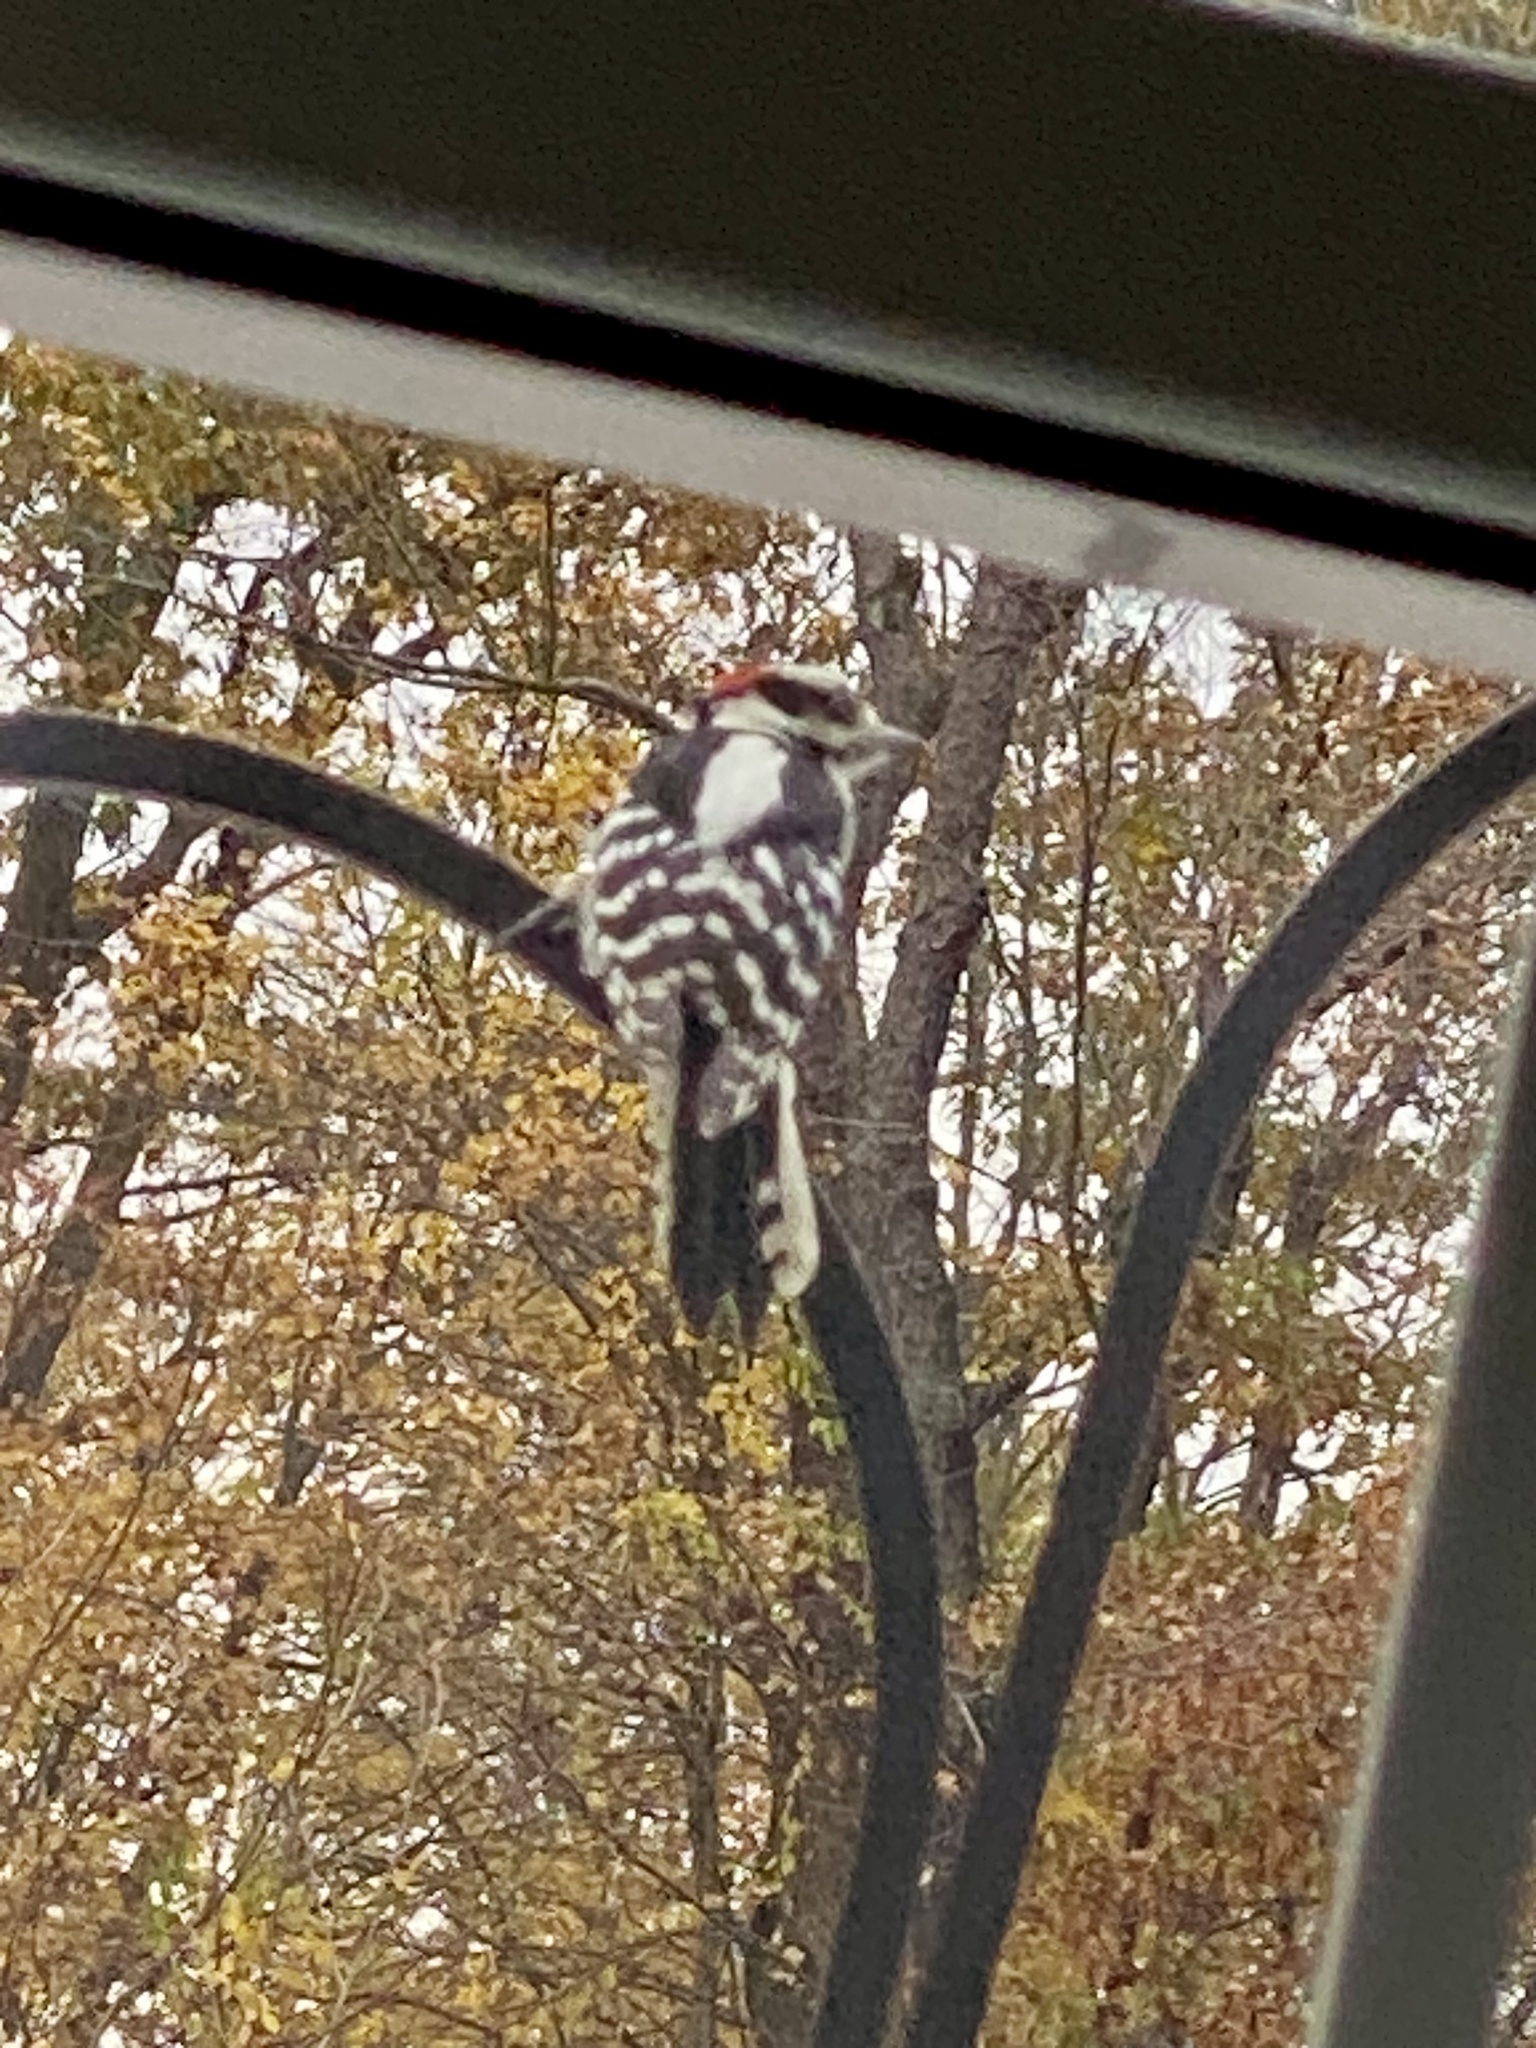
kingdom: Animalia
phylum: Chordata
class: Aves
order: Piciformes
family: Picidae
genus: Dryobates
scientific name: Dryobates pubescens
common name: Downy woodpecker
